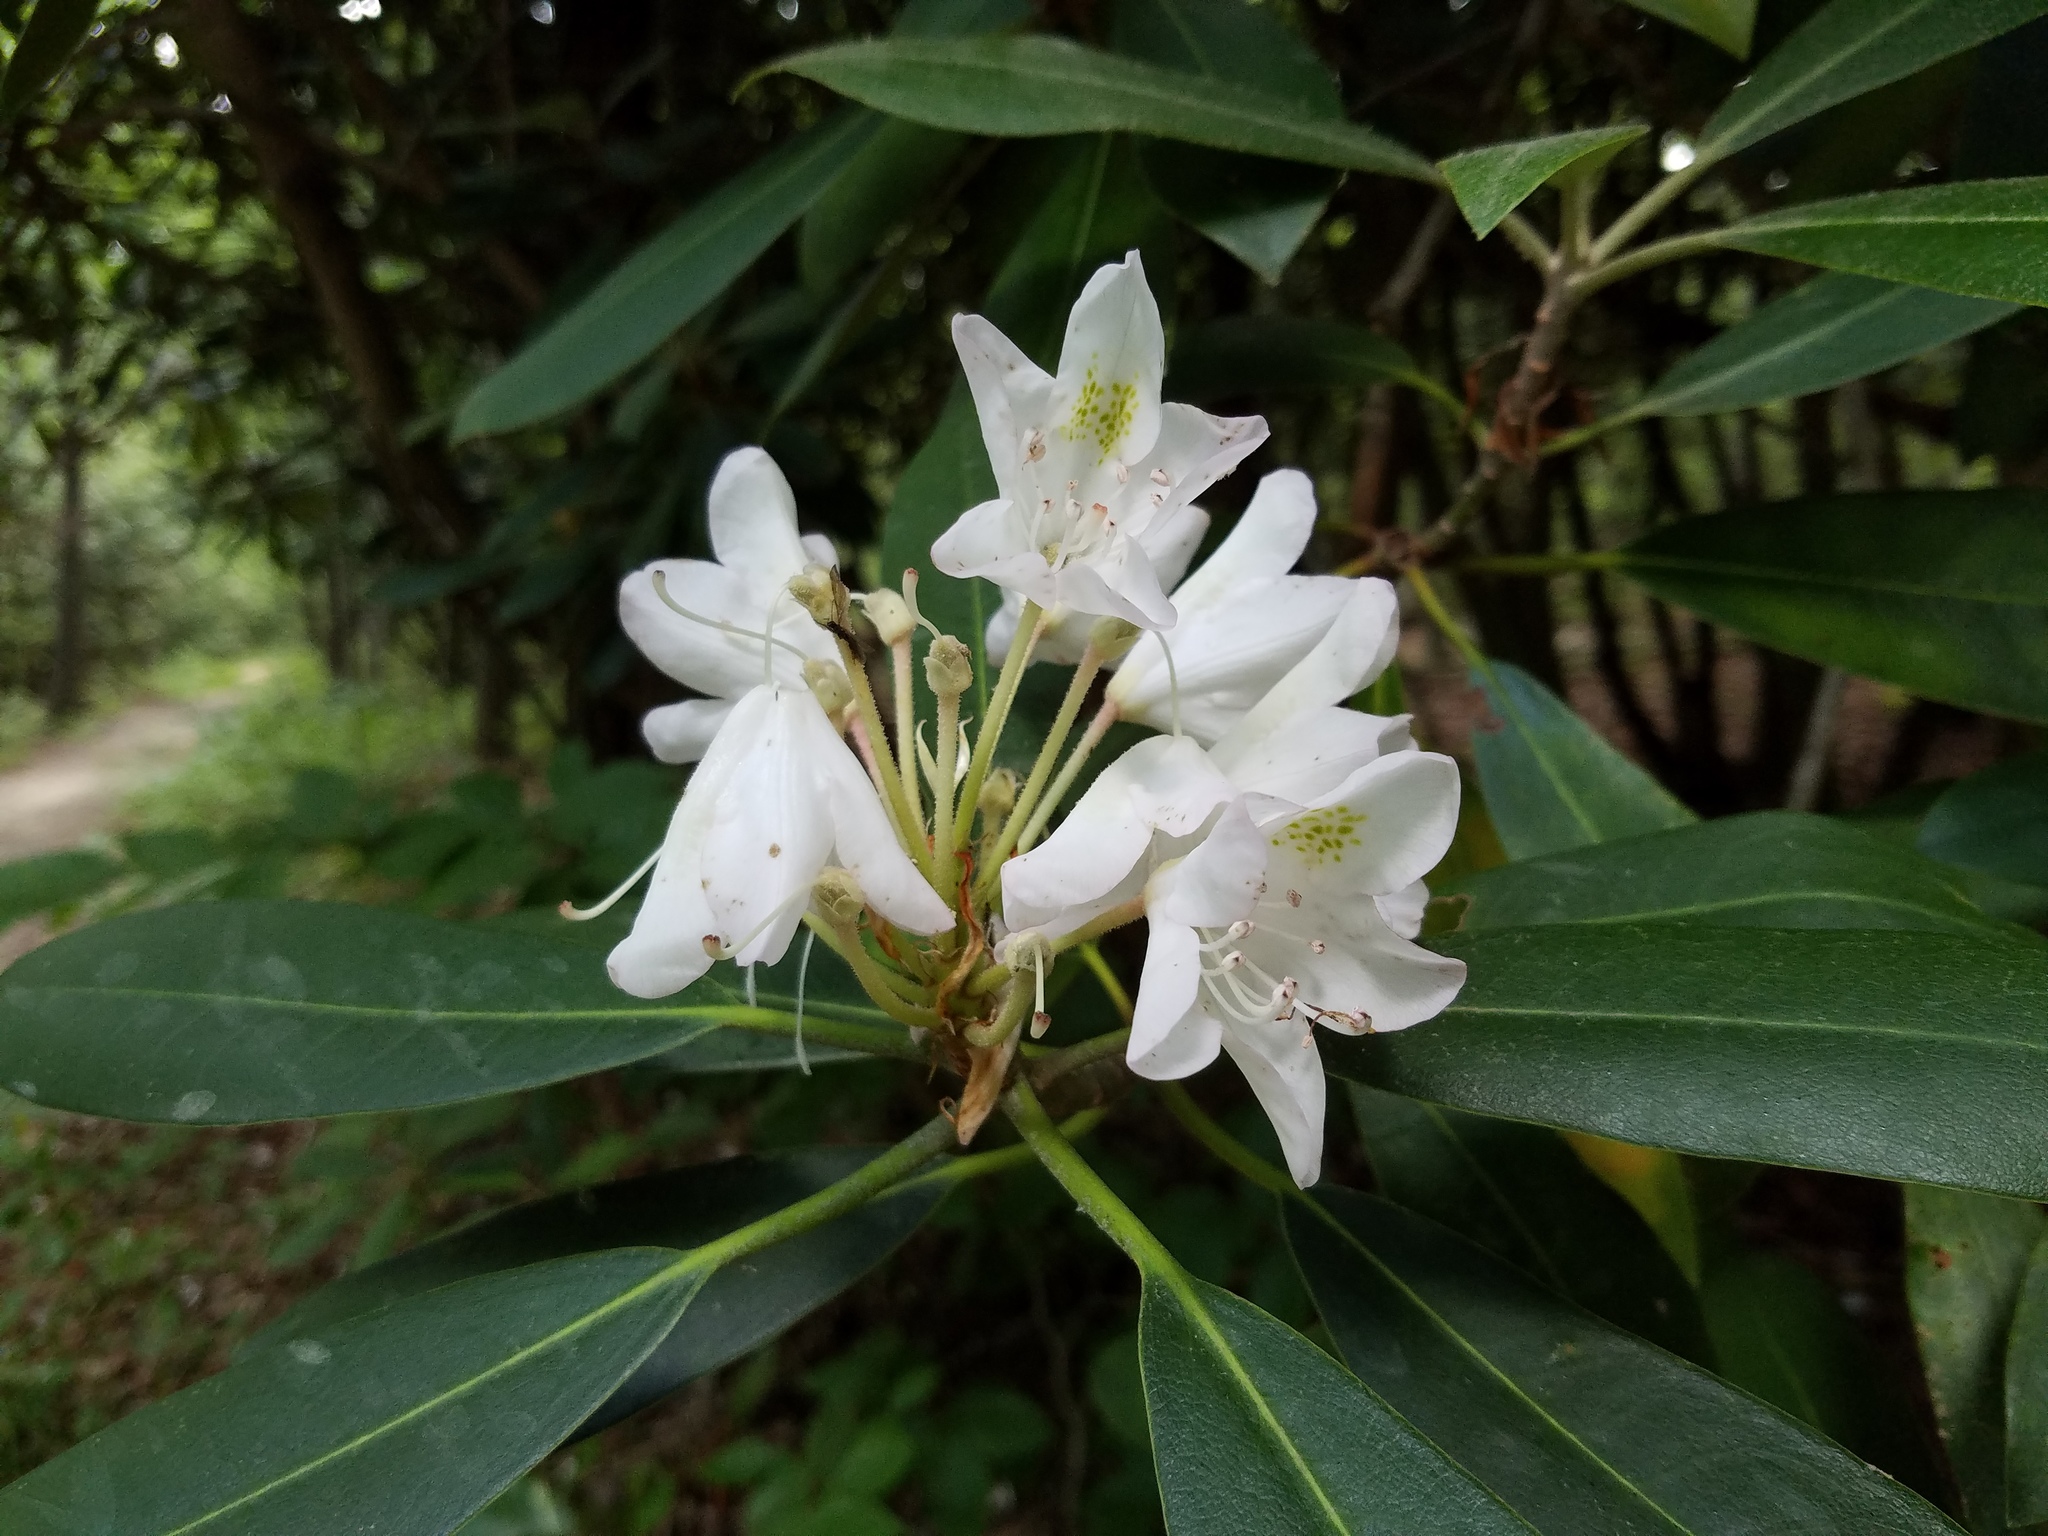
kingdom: Plantae
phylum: Tracheophyta
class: Magnoliopsida
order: Ericales
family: Ericaceae
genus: Rhododendron
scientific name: Rhododendron maximum
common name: Great rhododendron
